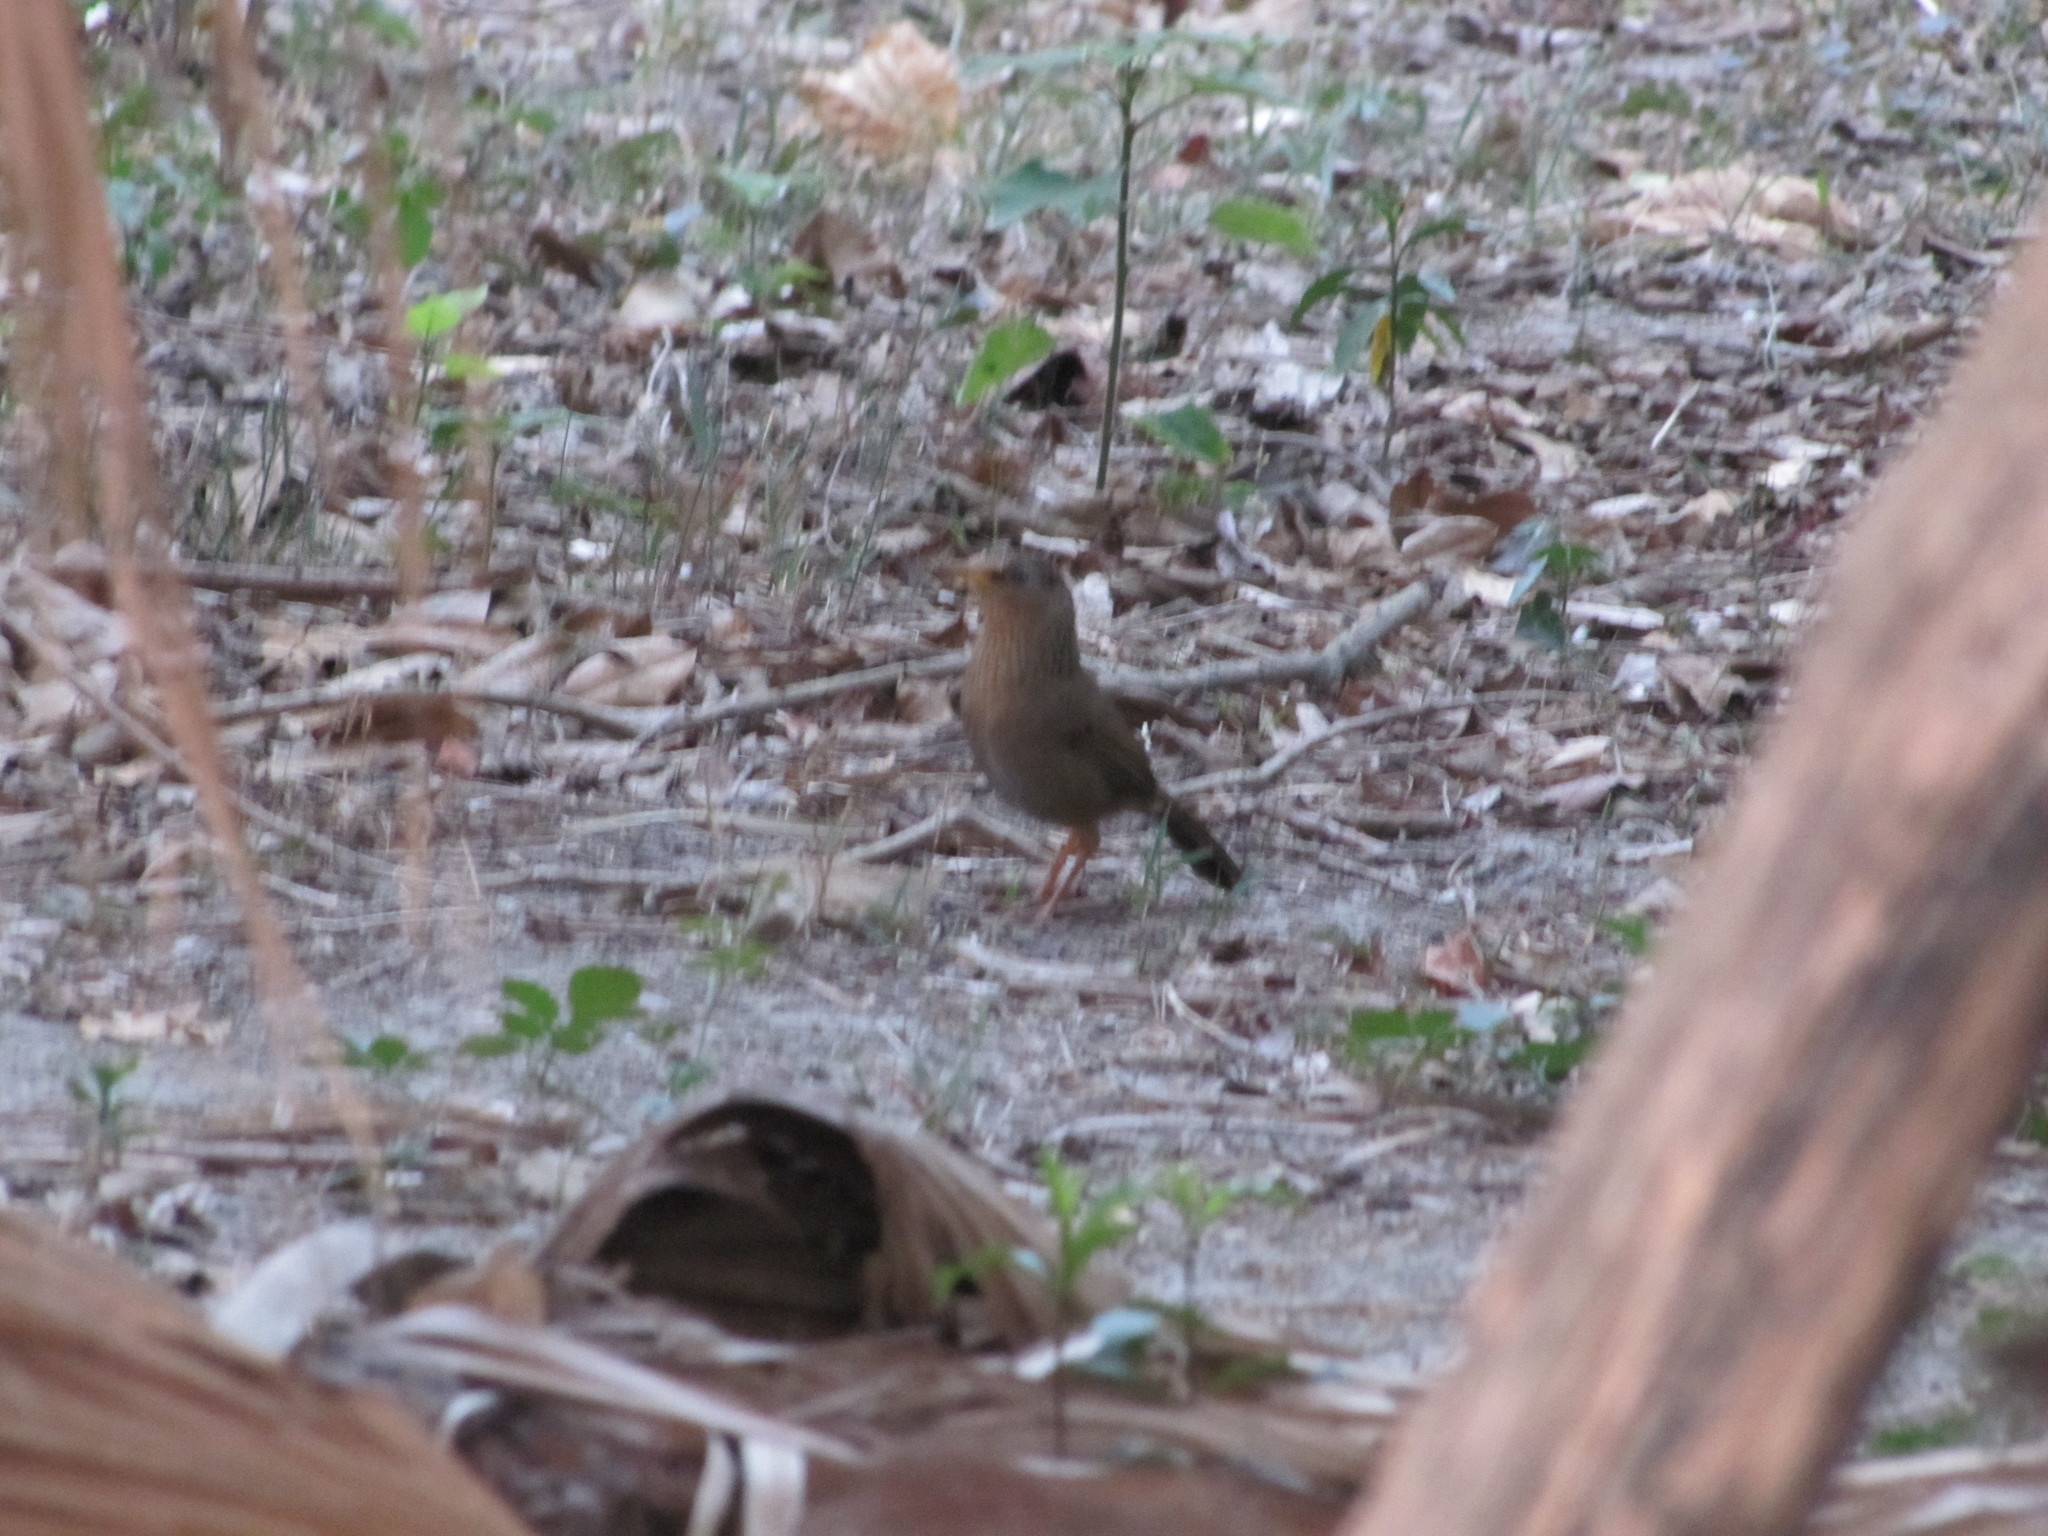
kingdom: Animalia
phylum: Chordata
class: Aves
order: Passeriformes
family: Leiothrichidae
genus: Garrulax
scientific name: Garrulax taewanus
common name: Taiwan hwamei
